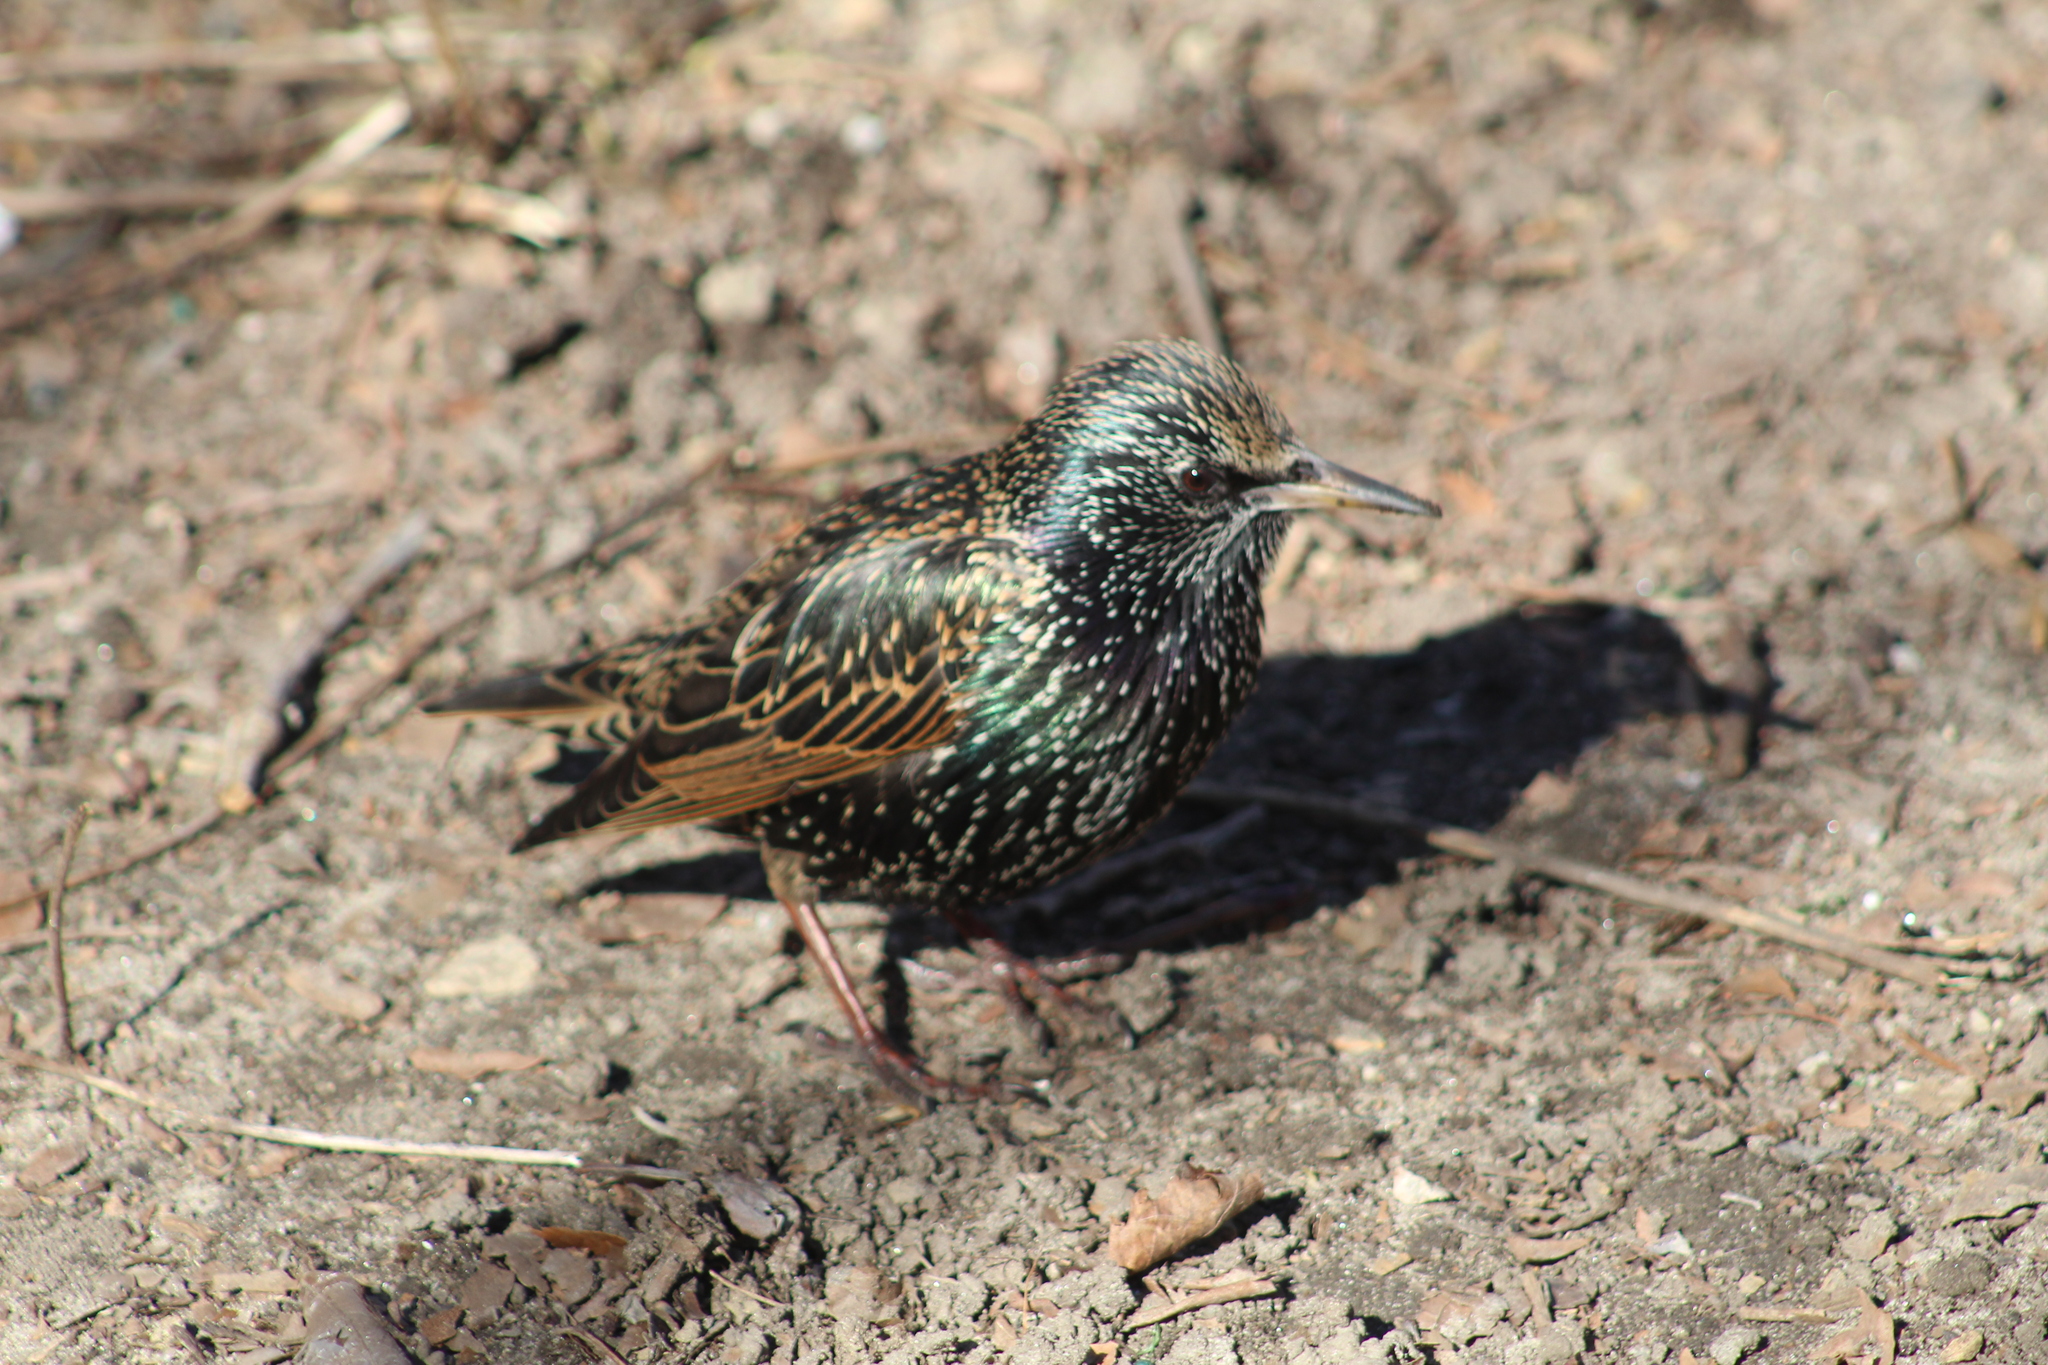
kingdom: Animalia
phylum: Chordata
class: Aves
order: Passeriformes
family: Sturnidae
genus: Sturnus
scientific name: Sturnus vulgaris
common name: Common starling
